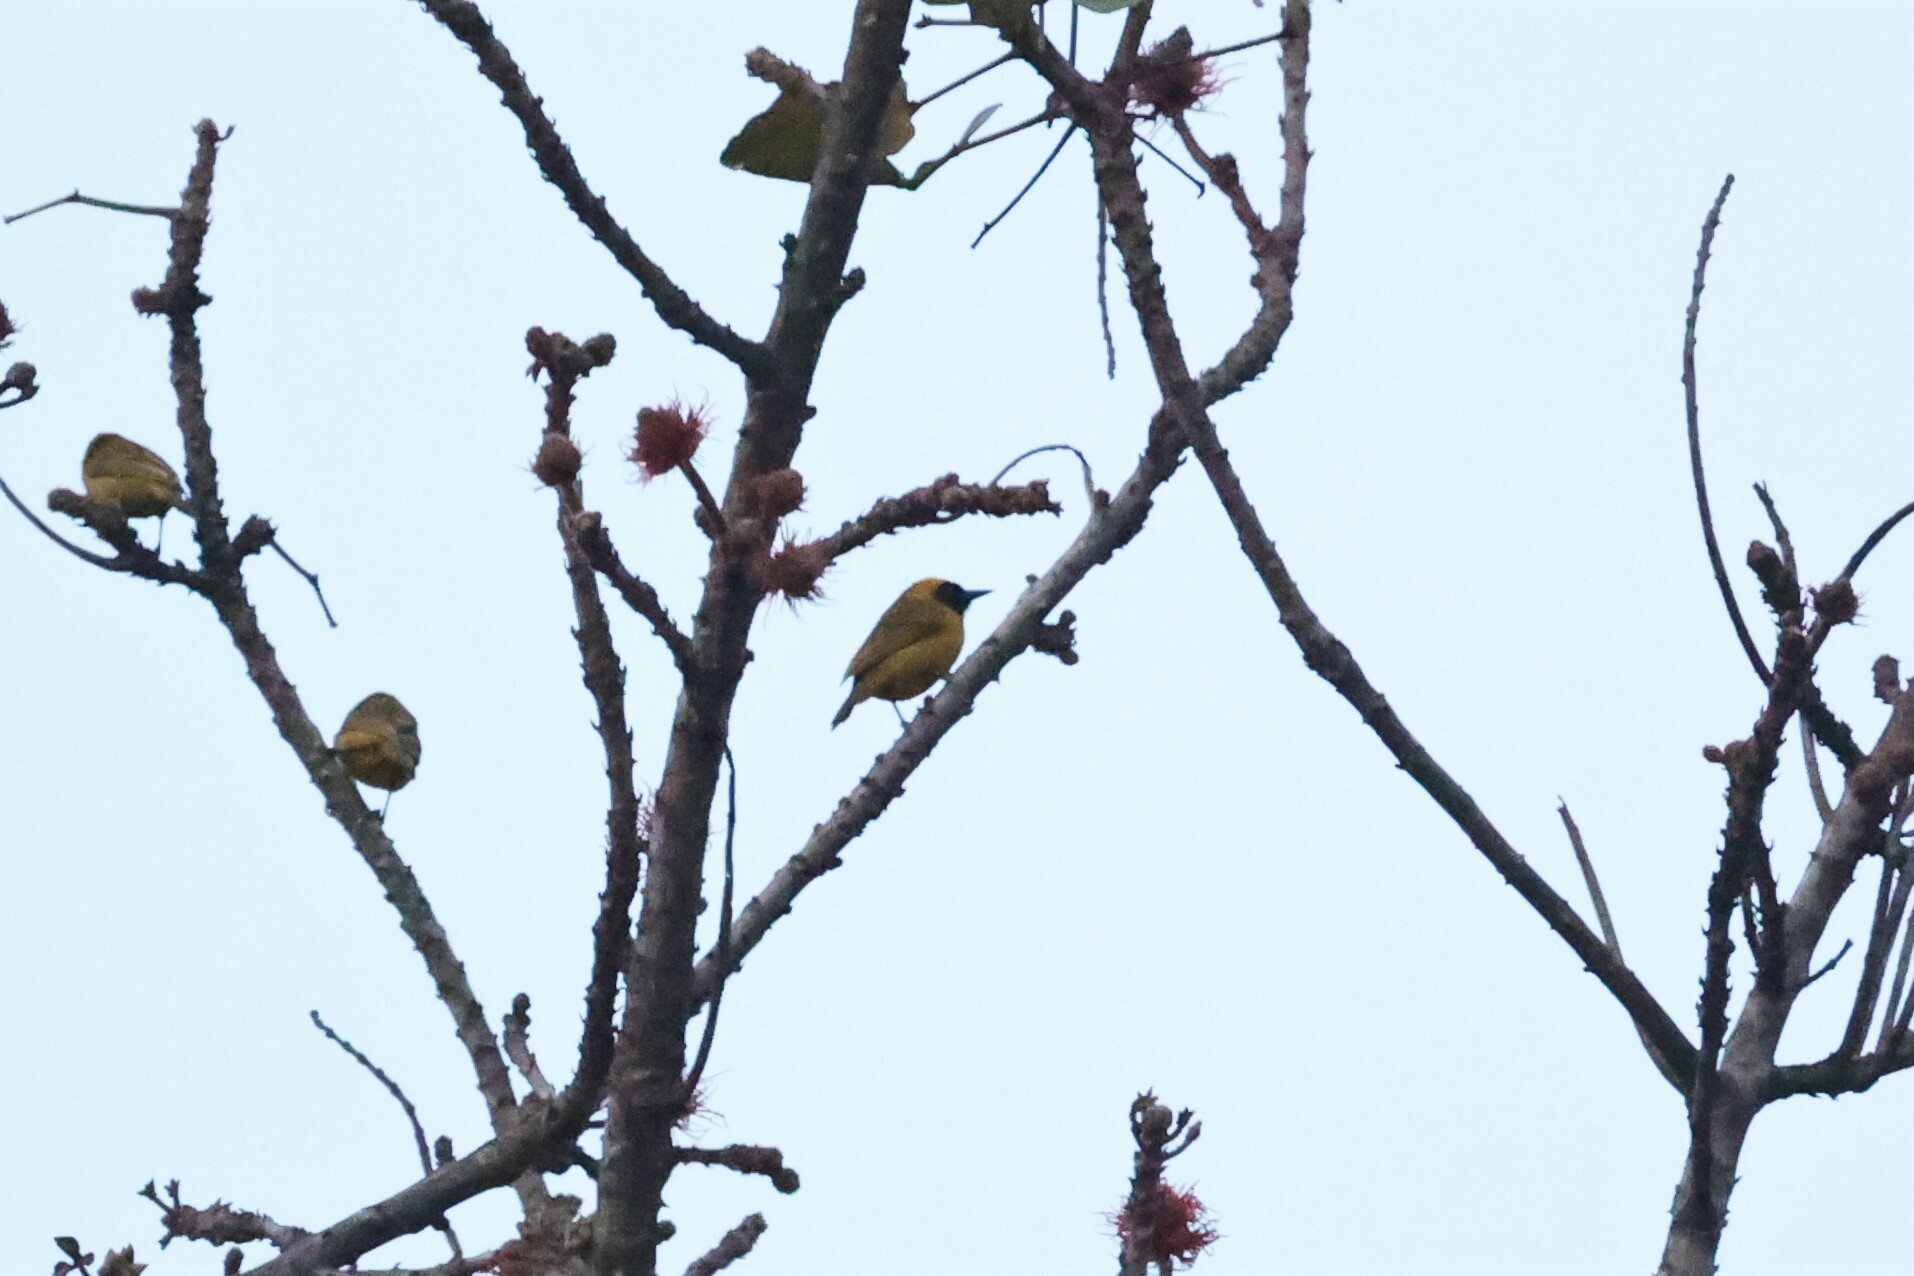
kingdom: Animalia
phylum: Chordata
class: Aves
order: Passeriformes
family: Ploceidae
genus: Ploceus
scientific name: Ploceus pelzelni
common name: Slender-billed weaver
